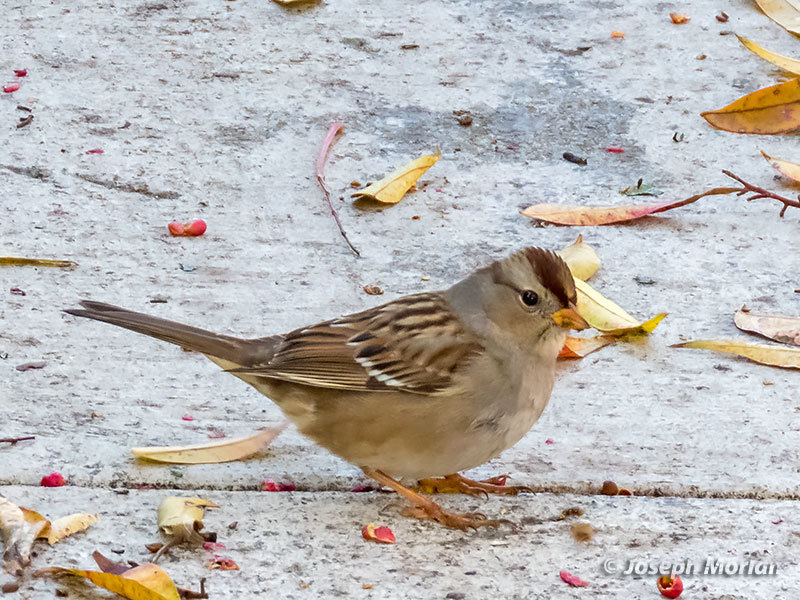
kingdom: Animalia
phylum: Chordata
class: Aves
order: Passeriformes
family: Passerellidae
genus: Zonotrichia
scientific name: Zonotrichia leucophrys
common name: White-crowned sparrow
